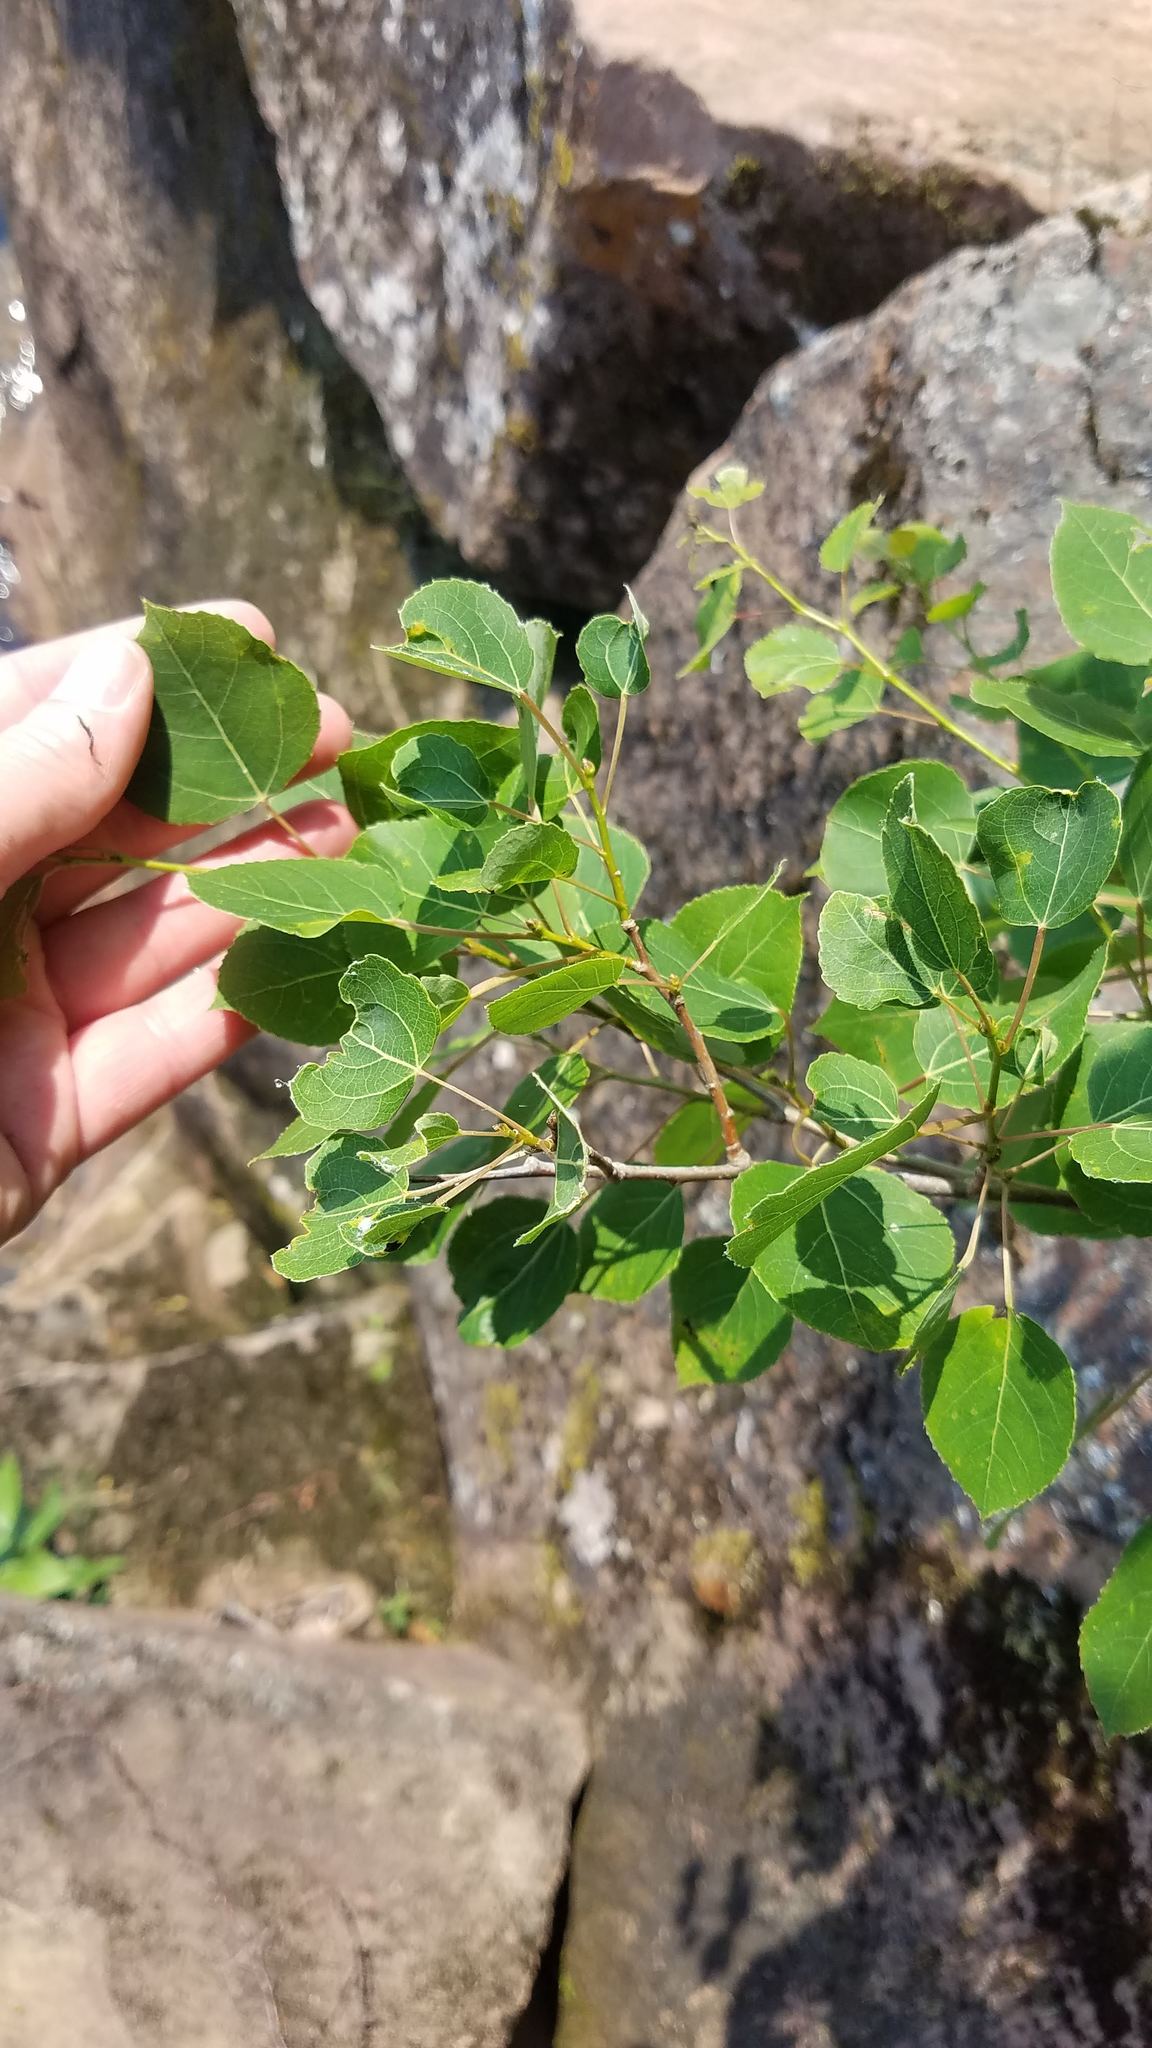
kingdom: Plantae
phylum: Tracheophyta
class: Magnoliopsida
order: Malpighiales
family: Salicaceae
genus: Populus
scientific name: Populus tremuloides
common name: Quaking aspen
